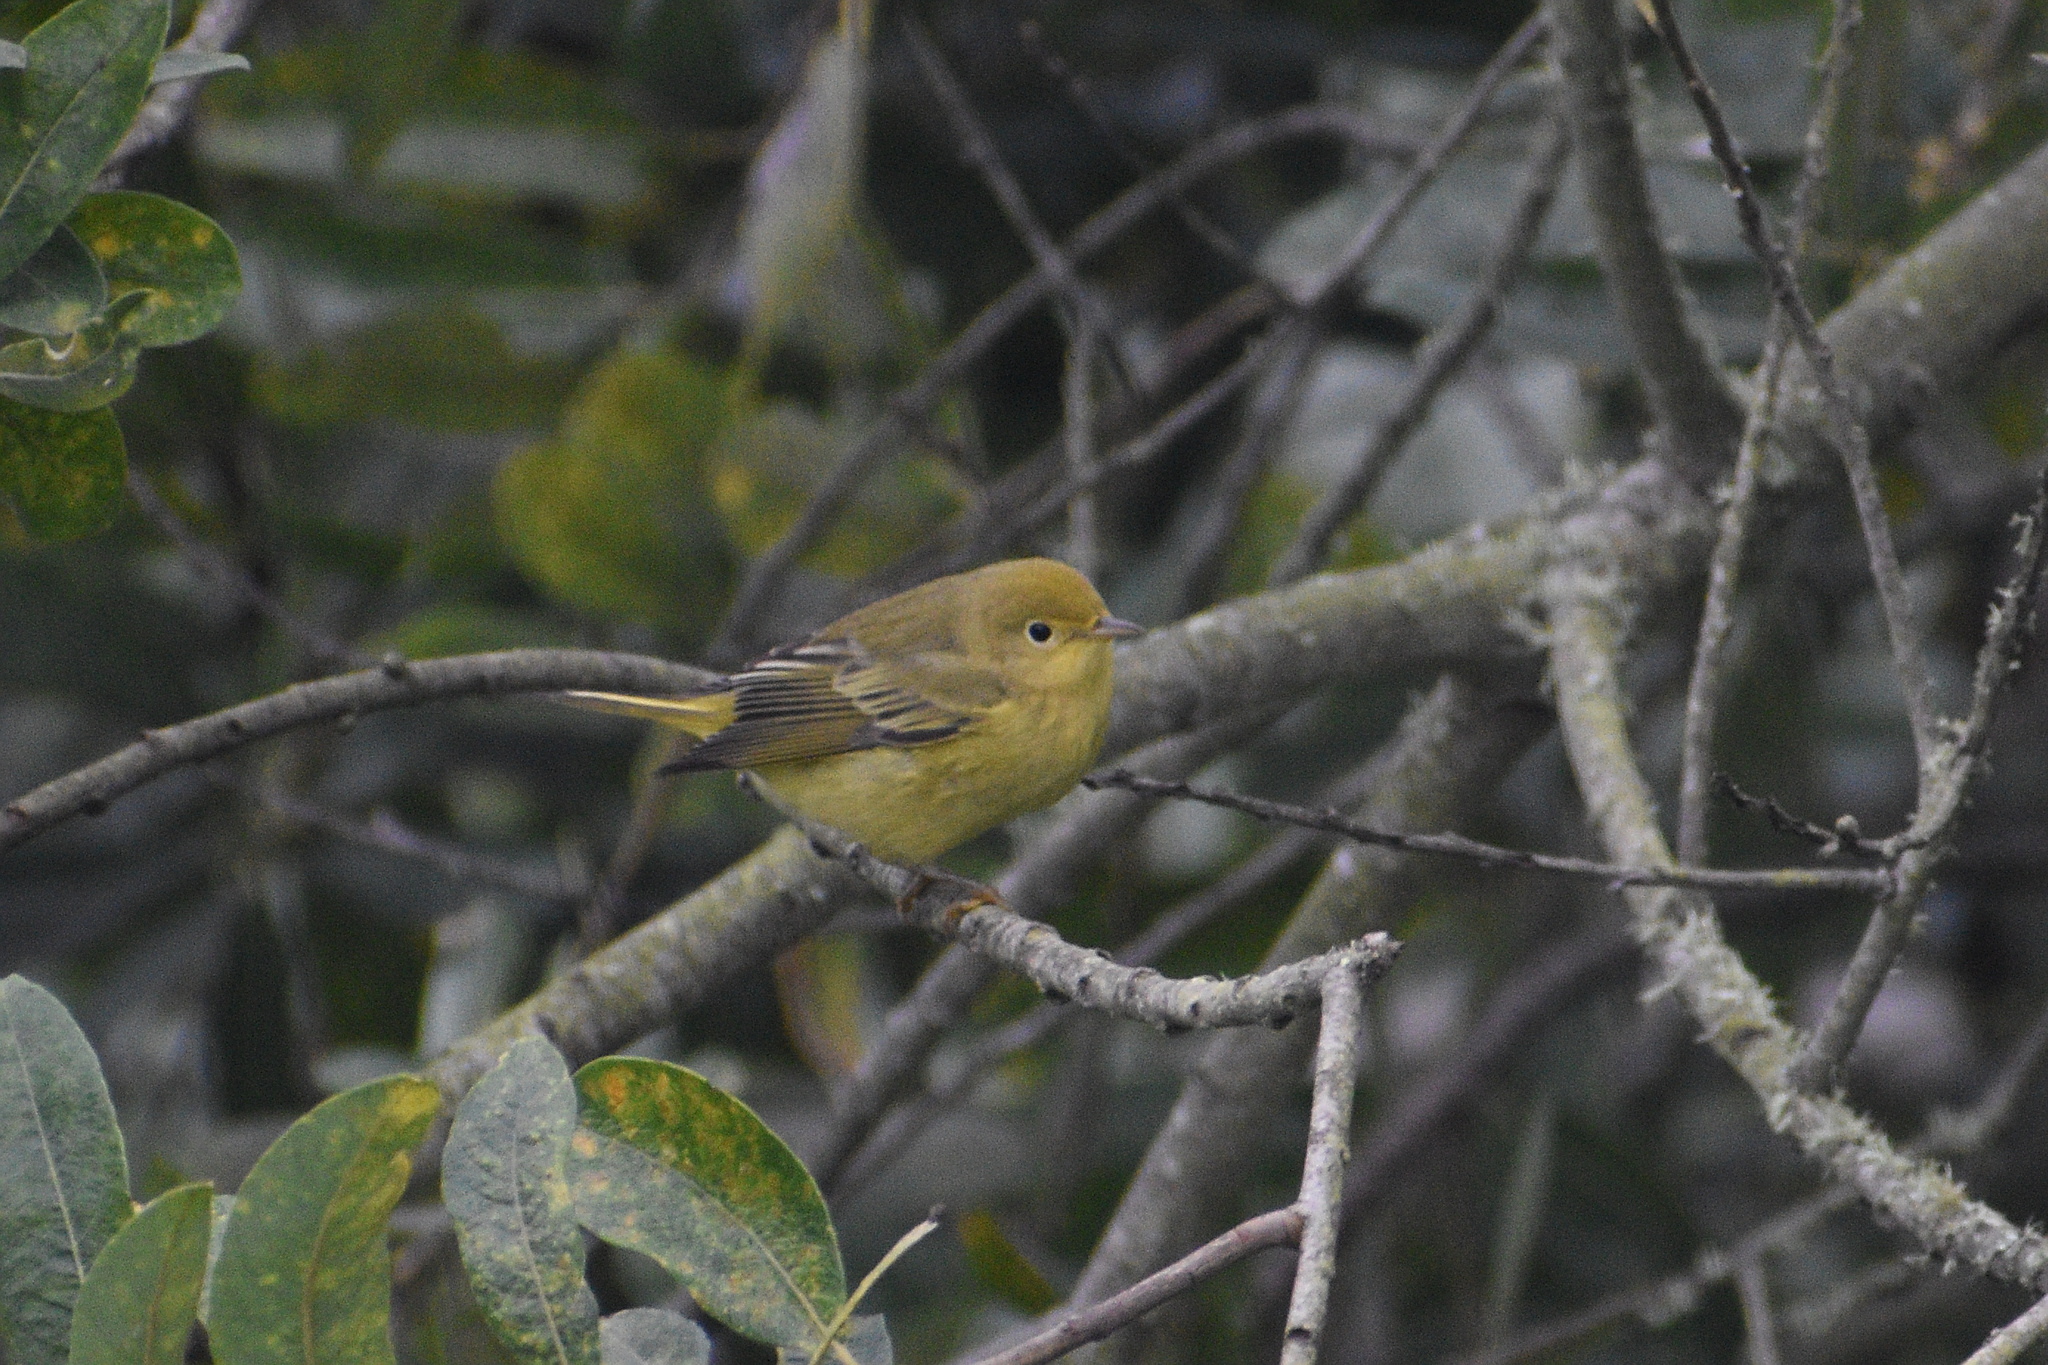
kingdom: Animalia
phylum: Chordata
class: Aves
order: Passeriformes
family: Parulidae
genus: Setophaga
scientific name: Setophaga petechia
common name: Yellow warbler
